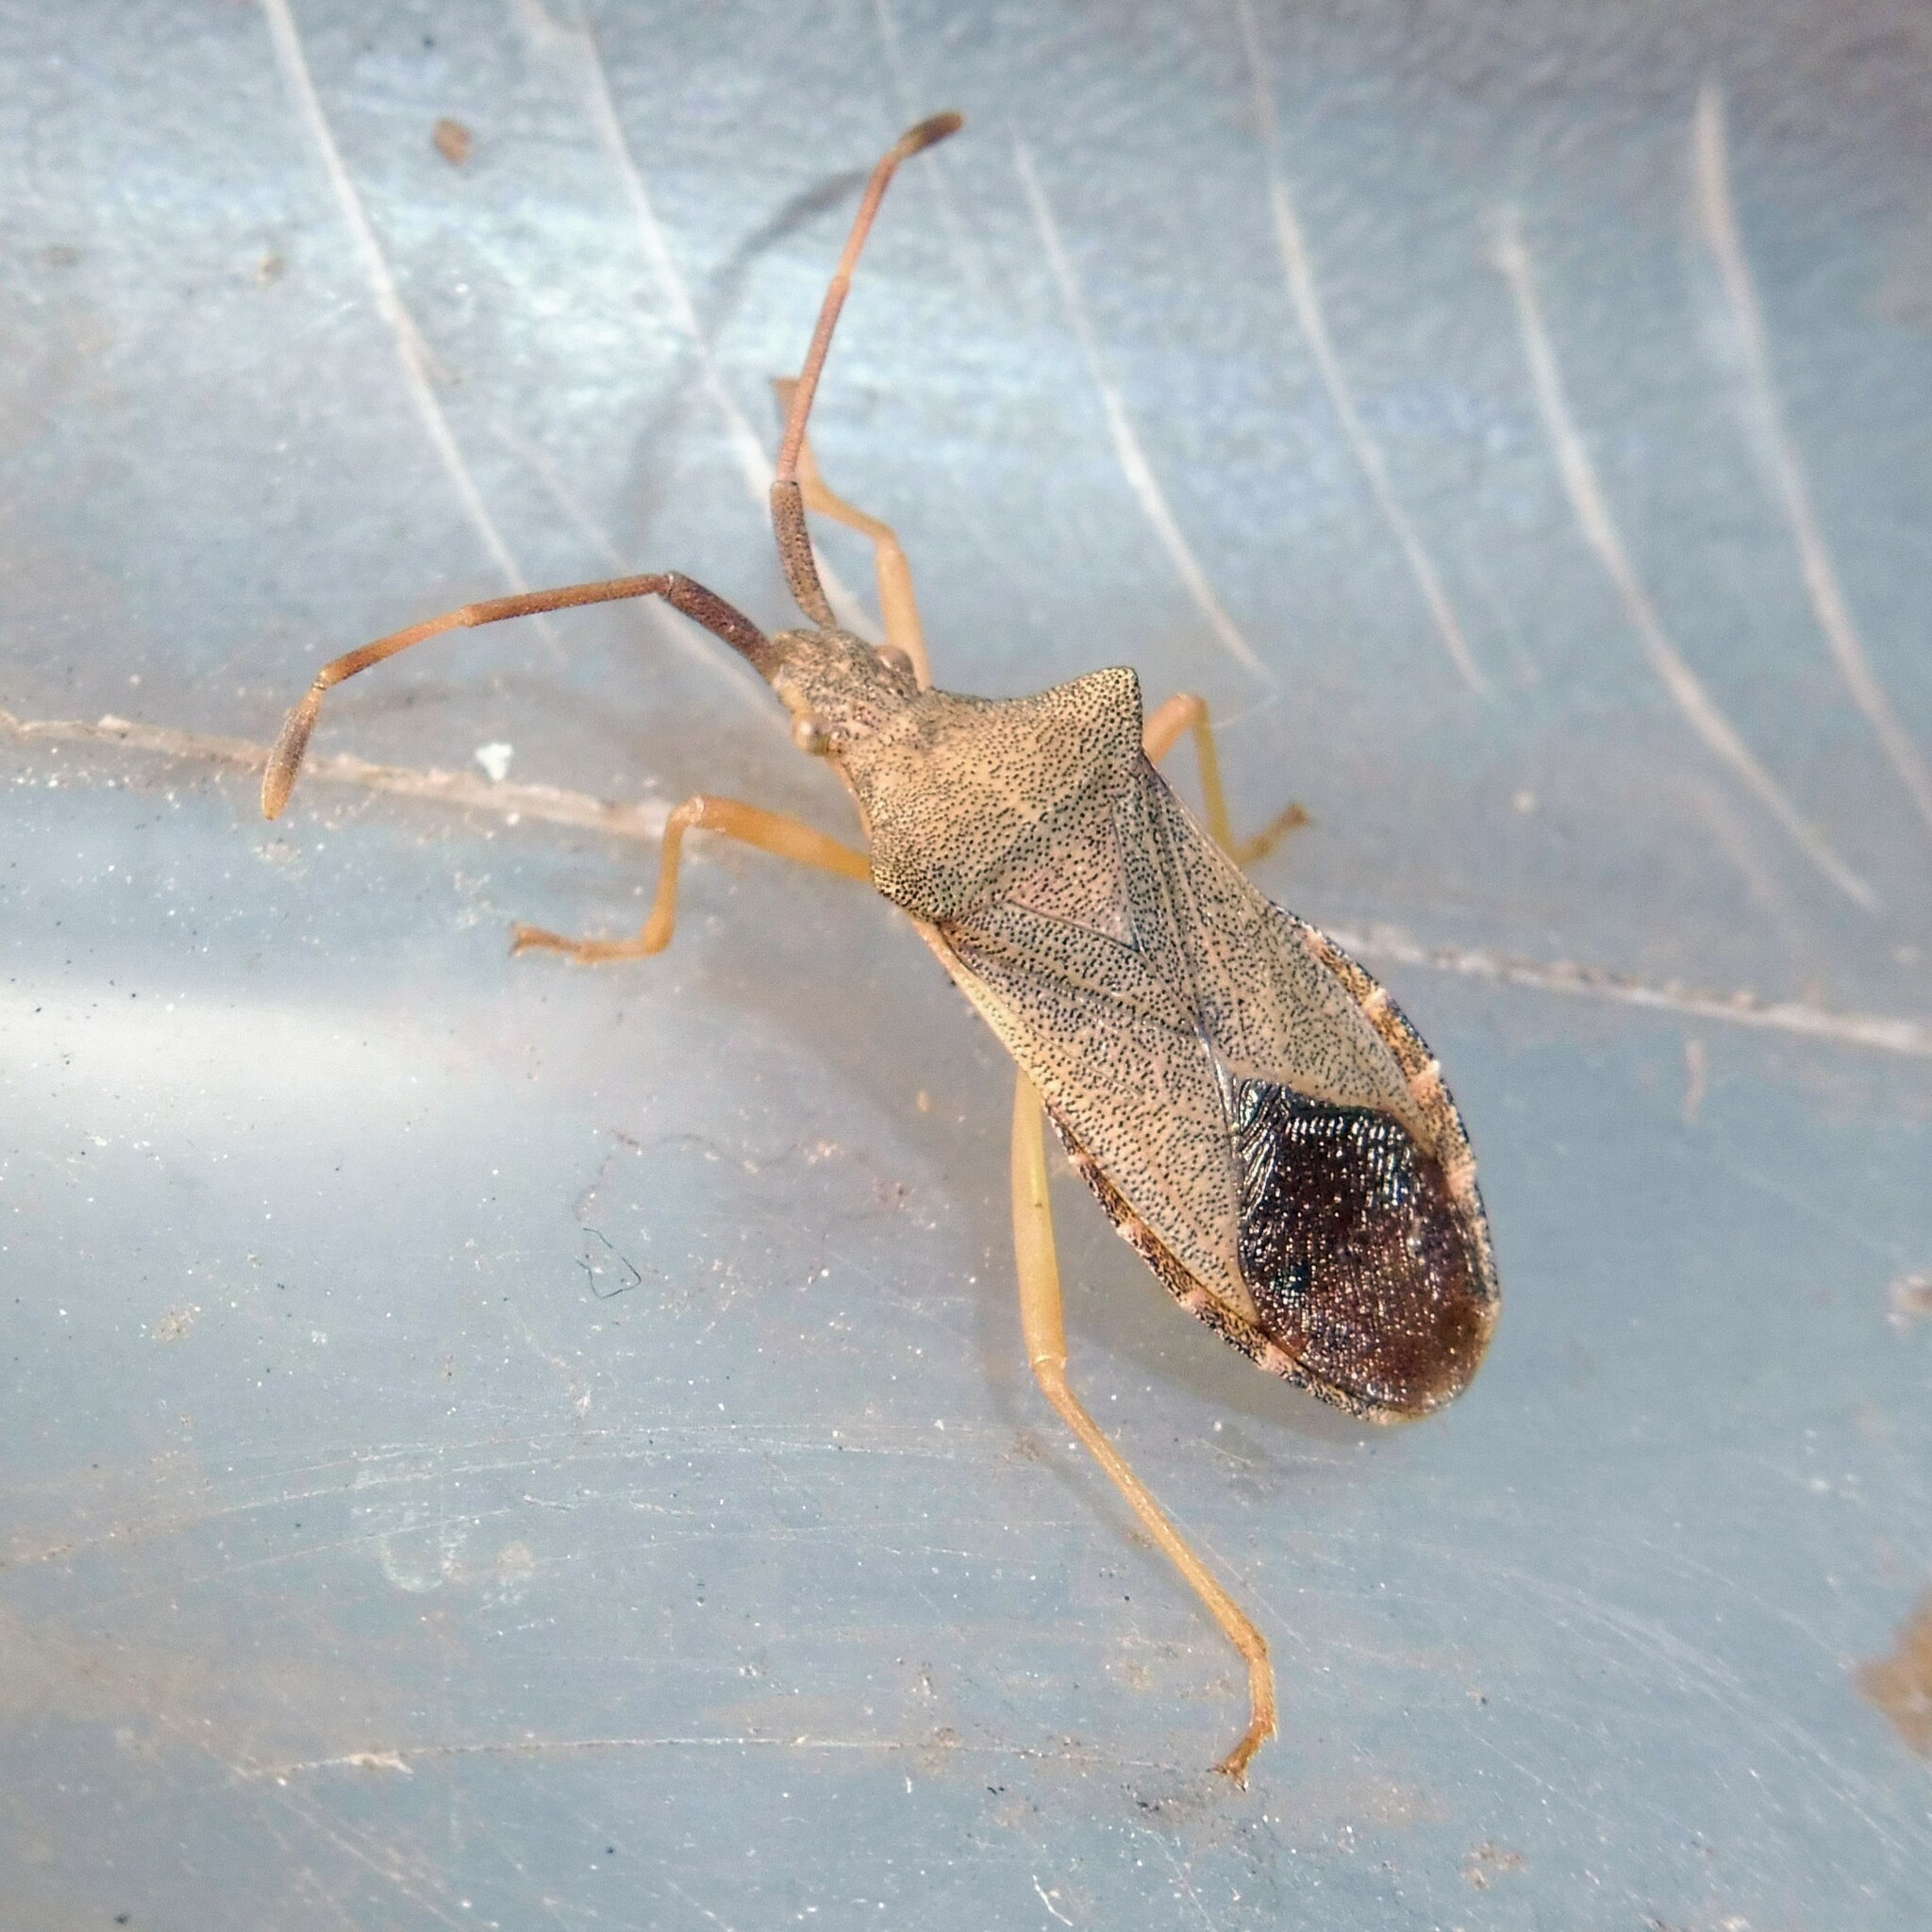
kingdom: Animalia
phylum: Arthropoda
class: Insecta
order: Hemiptera
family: Coreidae
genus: Gonocerus
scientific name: Gonocerus acuteangulatus
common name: Box bug
